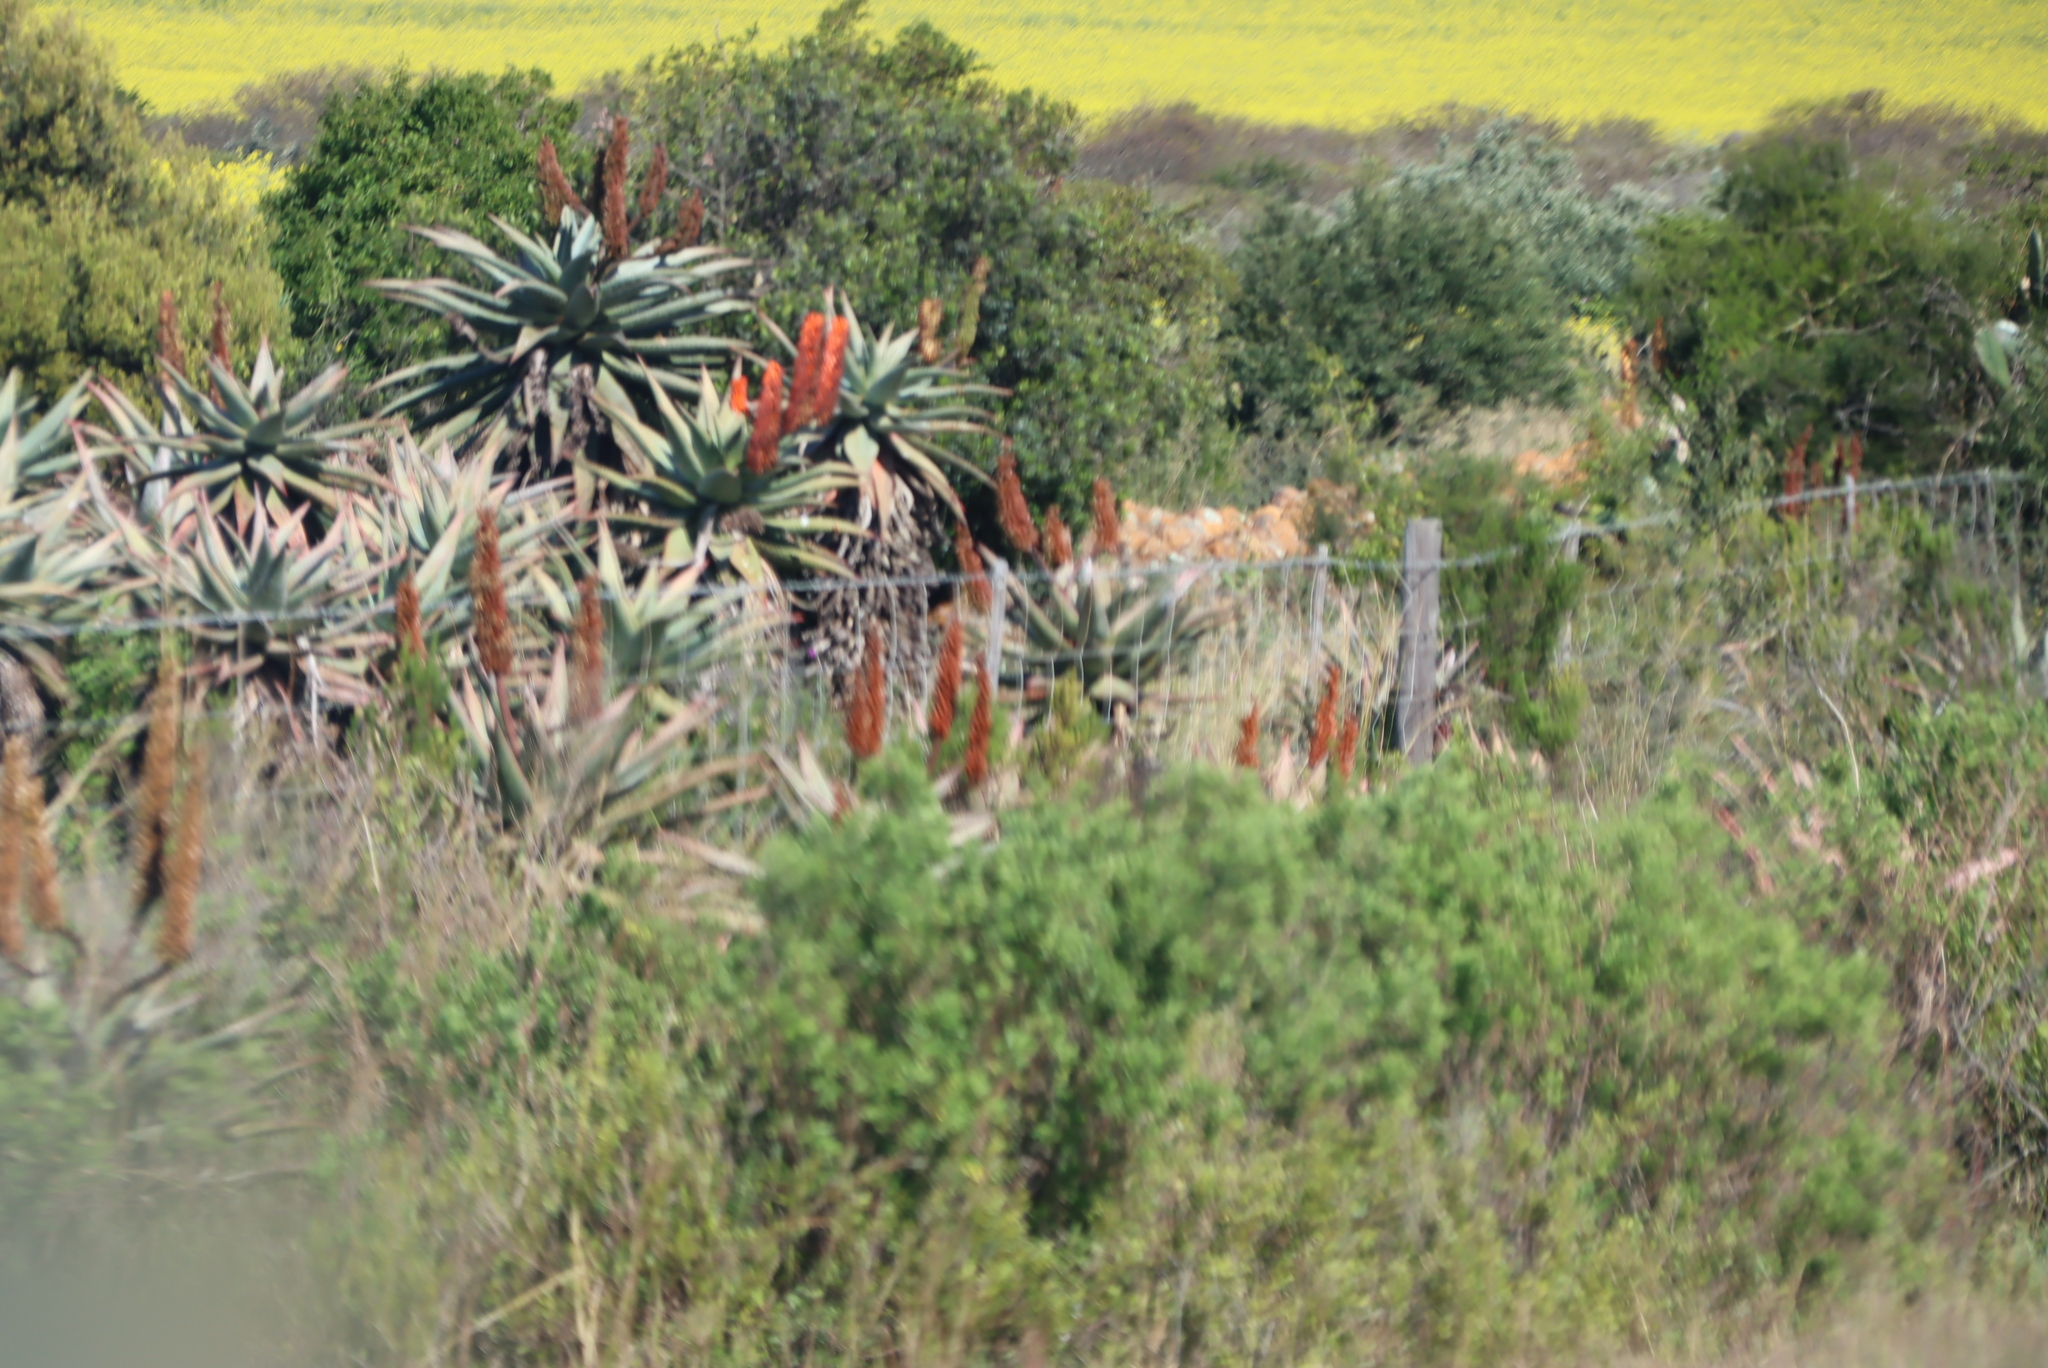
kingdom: Plantae
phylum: Tracheophyta
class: Liliopsida
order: Asparagales
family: Asphodelaceae
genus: Aloe
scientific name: Aloe ferox
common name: Bitter aloe
